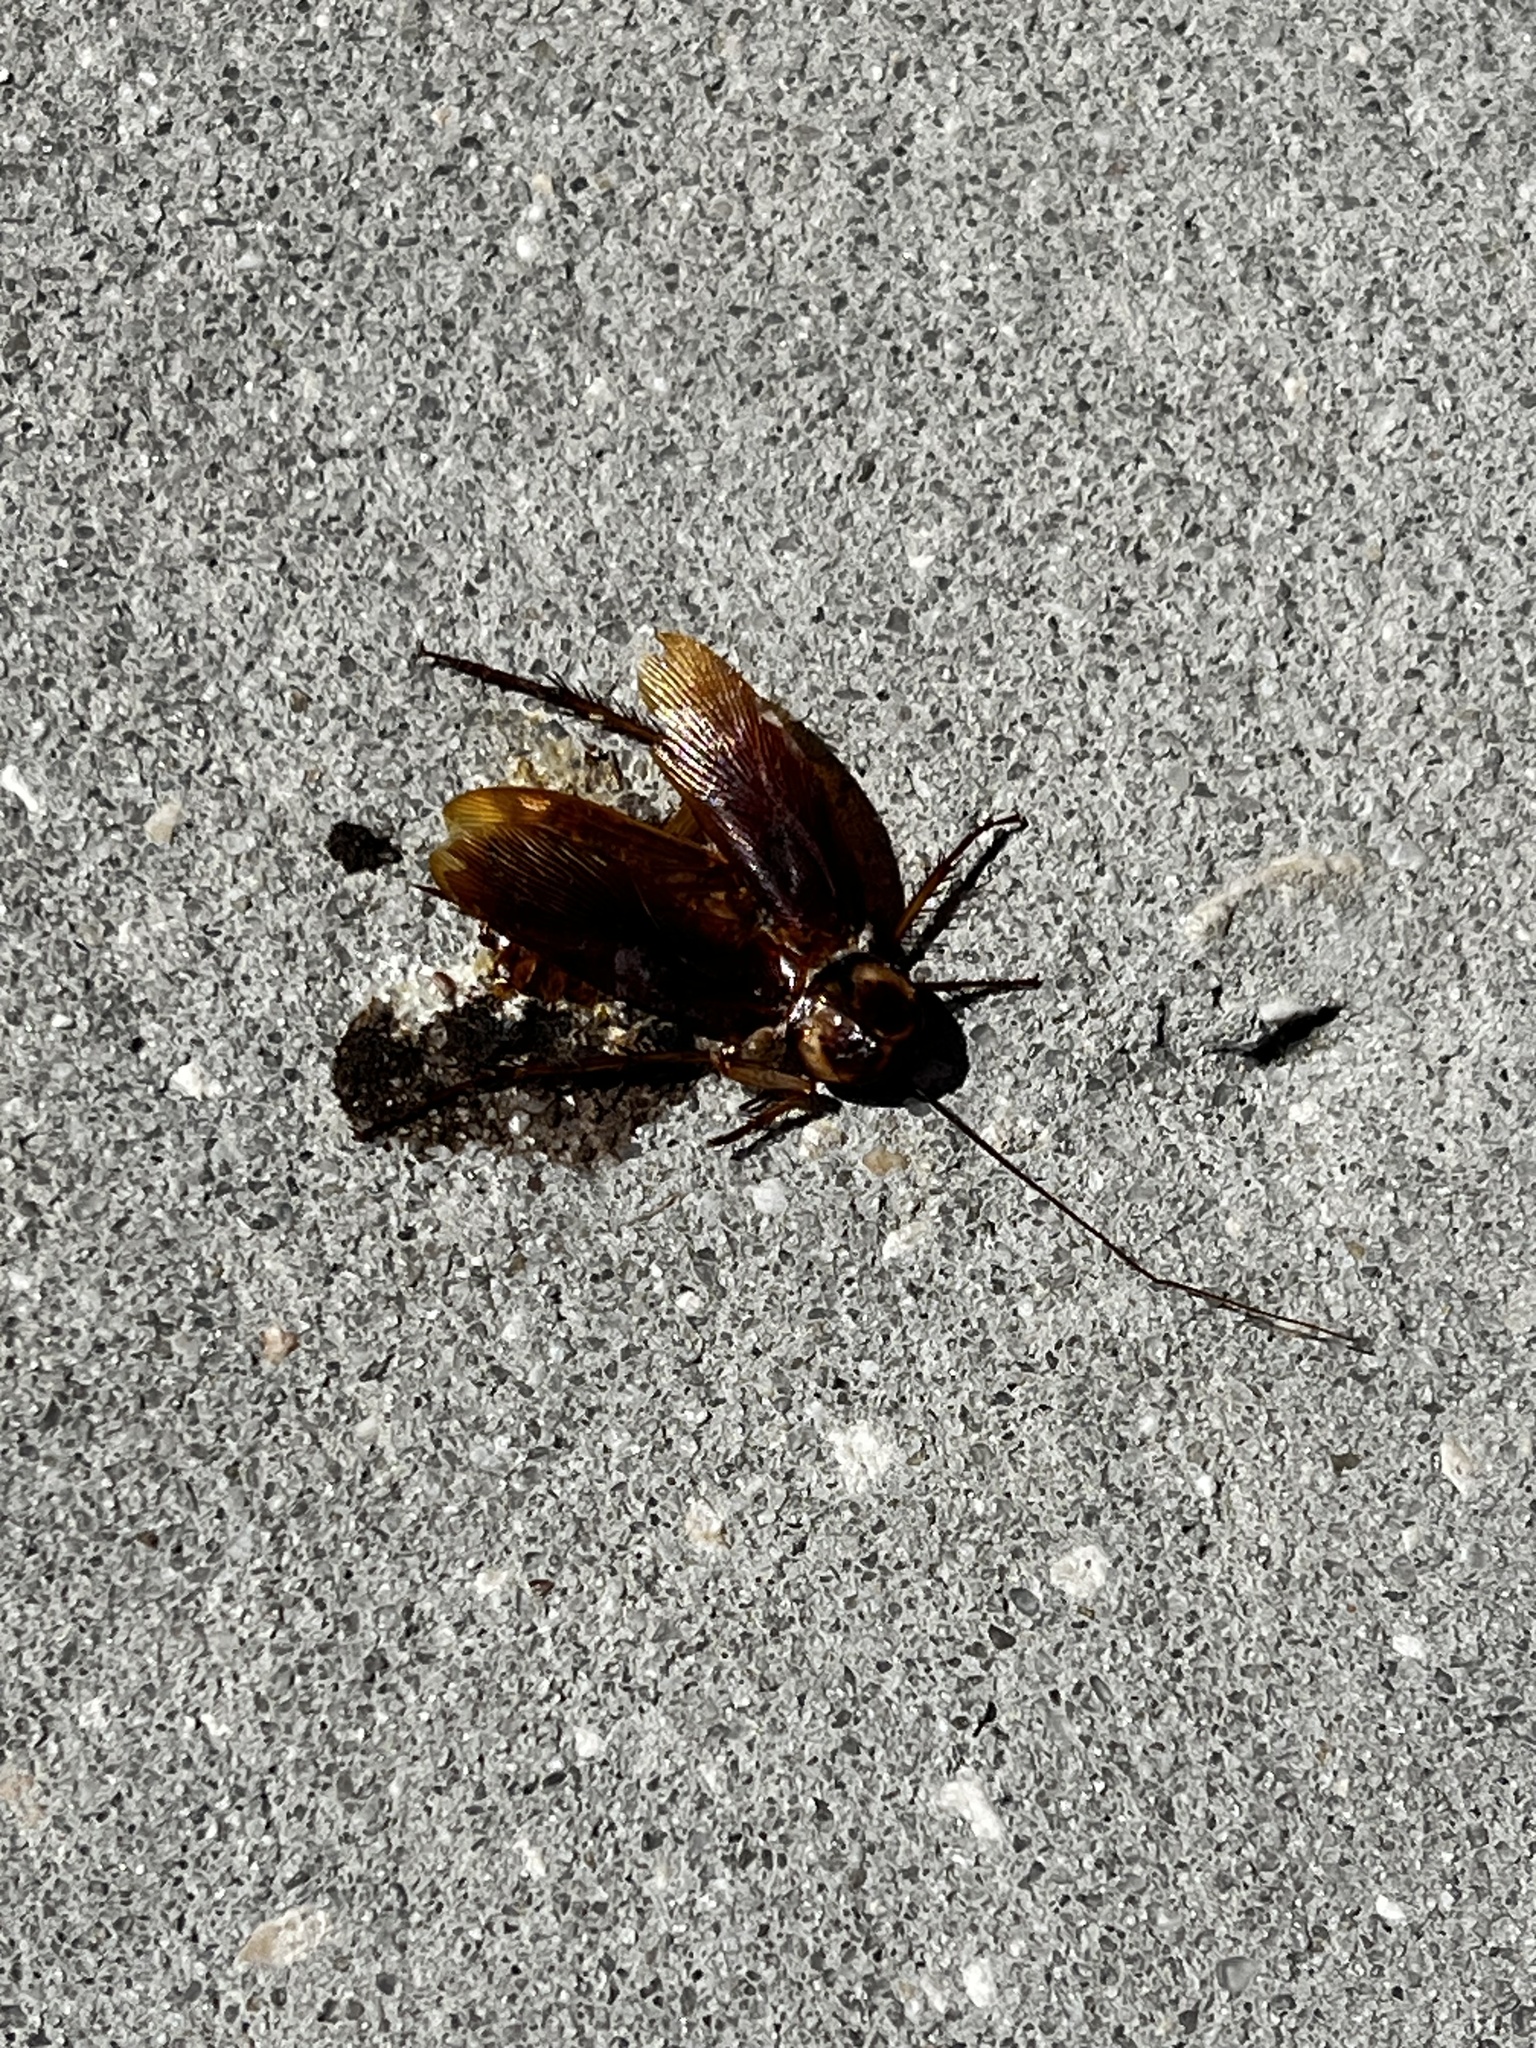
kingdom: Animalia
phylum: Arthropoda
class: Insecta
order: Blattodea
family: Blattidae
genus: Periplaneta
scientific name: Periplaneta americana
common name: American cockroach
